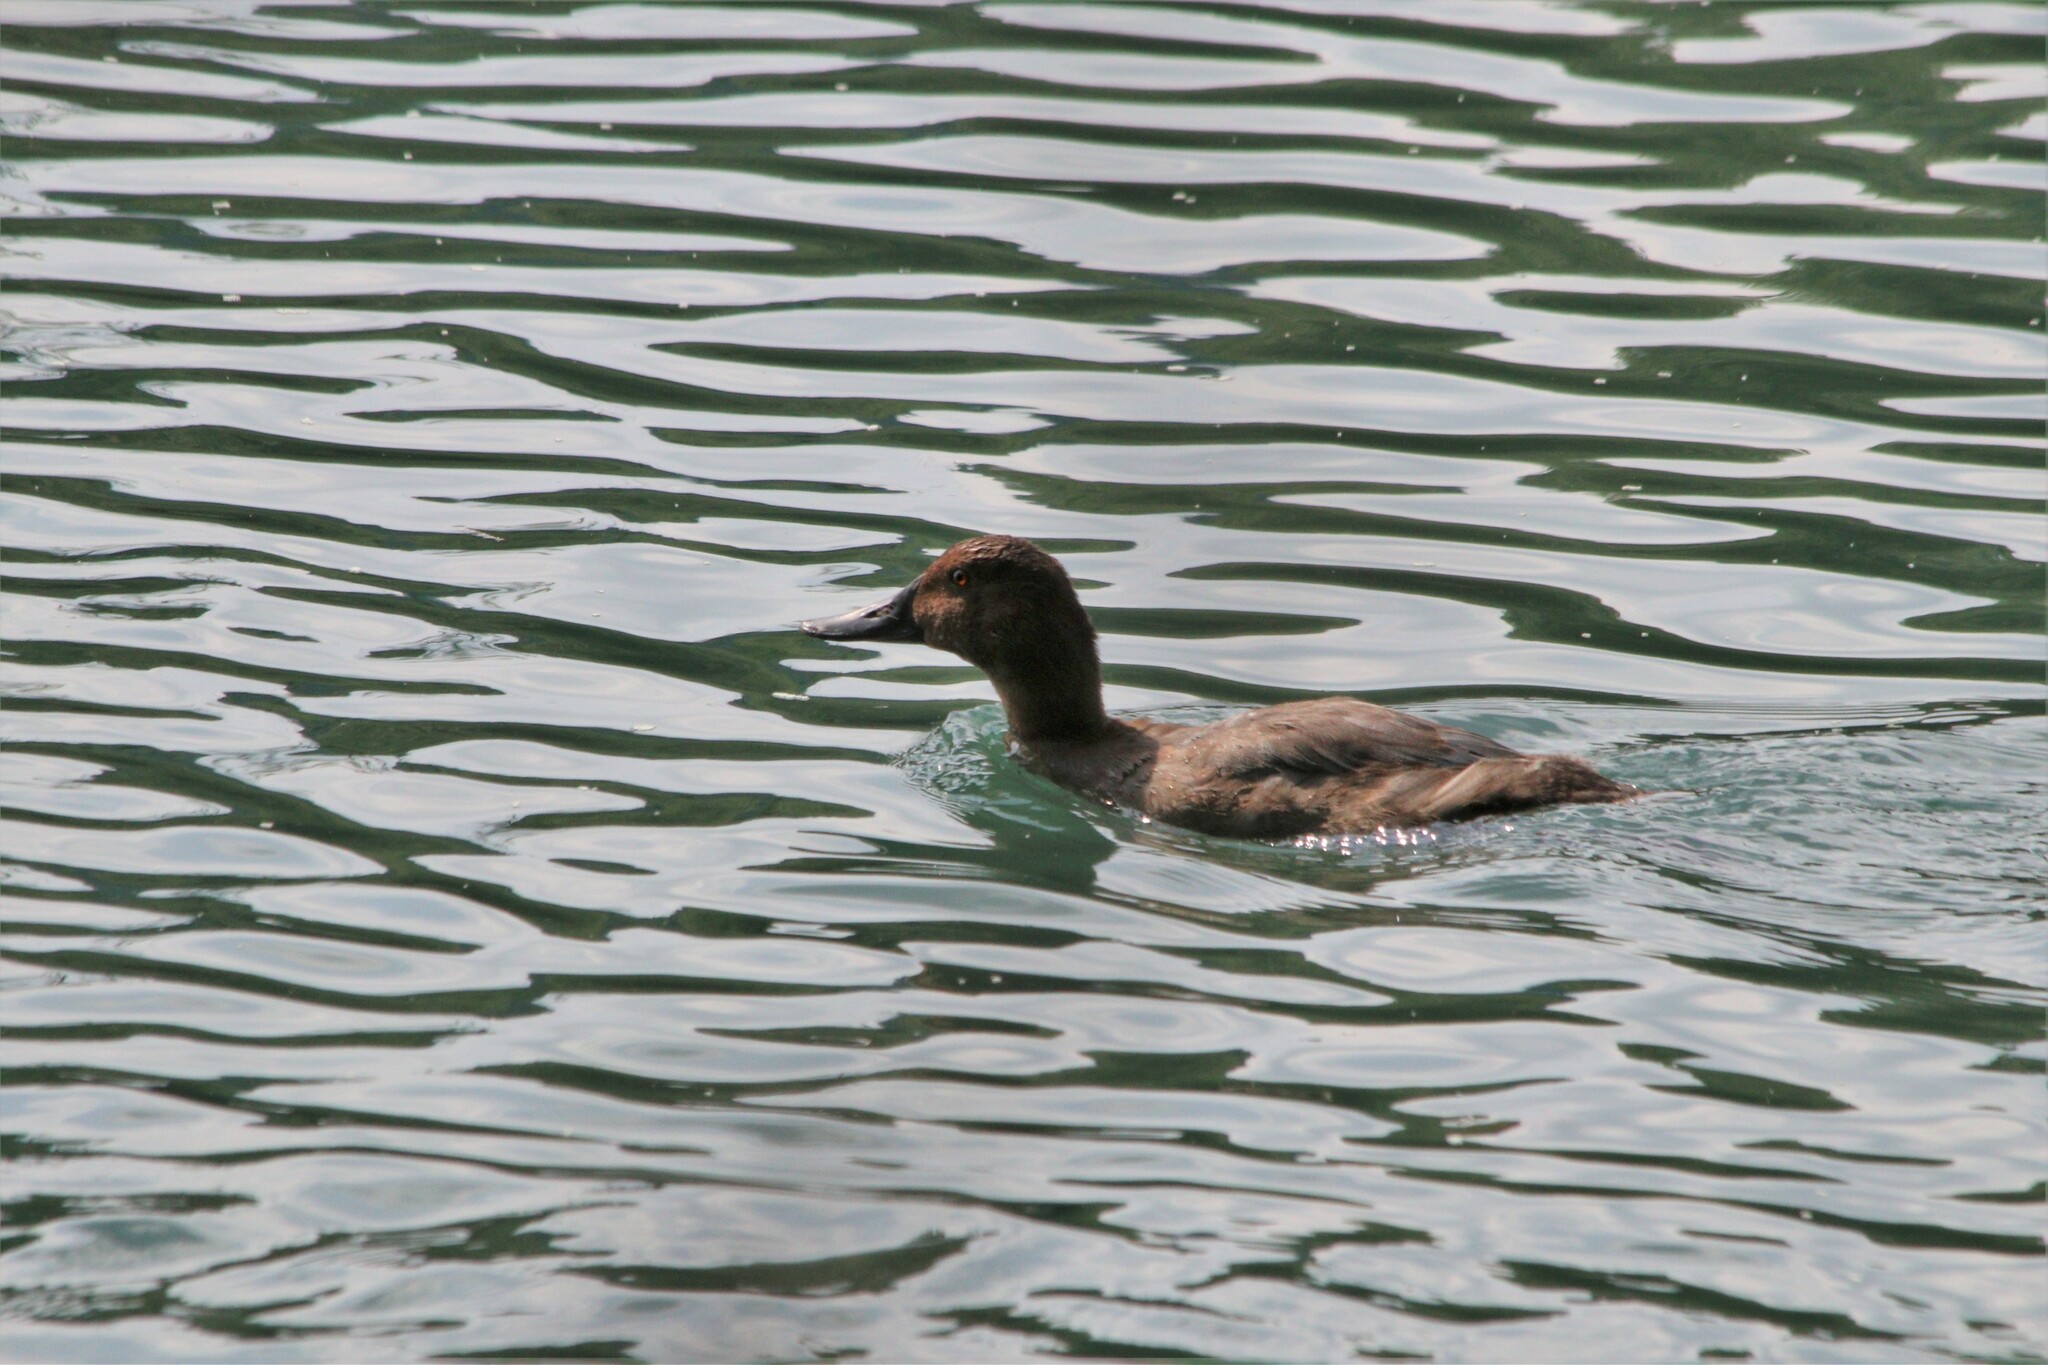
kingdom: Animalia
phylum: Chordata
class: Aves
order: Anseriformes
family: Anatidae
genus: Aythya
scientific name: Aythya ferina
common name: Common pochard
